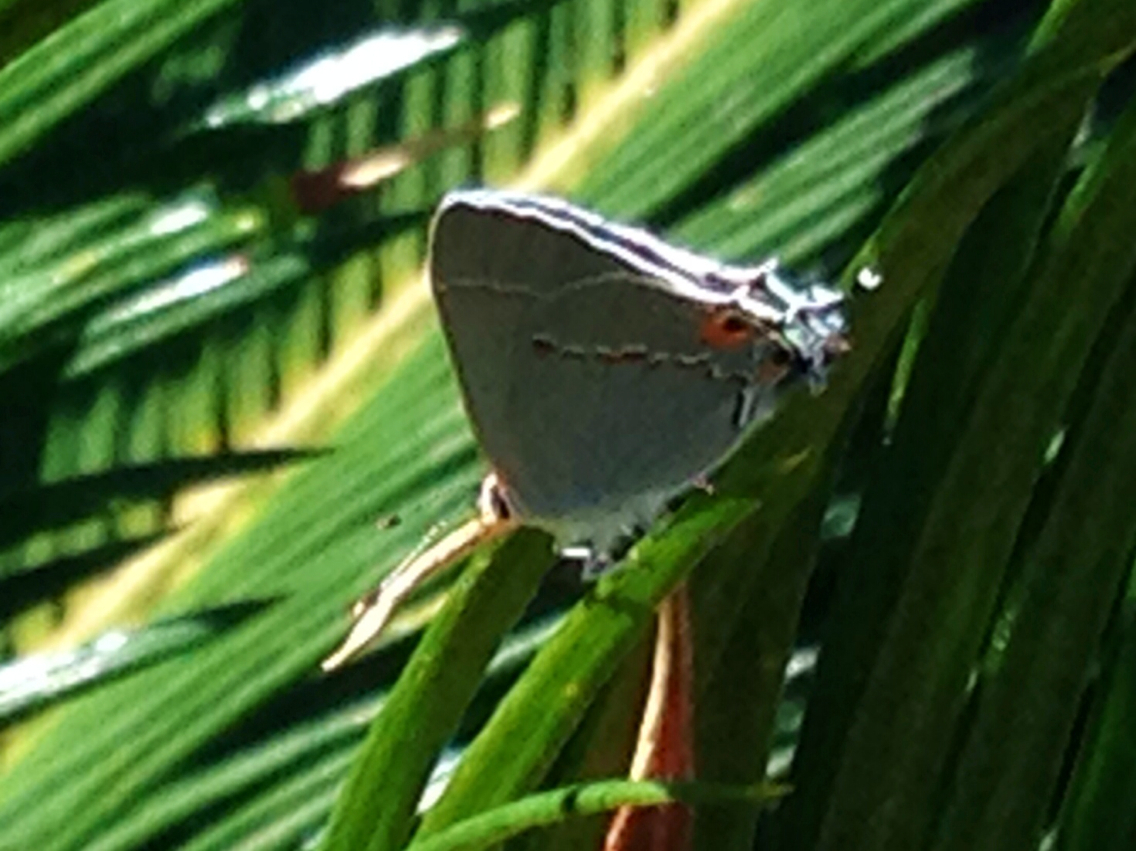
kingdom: Animalia
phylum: Arthropoda
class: Insecta
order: Lepidoptera
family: Lycaenidae
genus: Strymon
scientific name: Strymon melinus
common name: Gray hairstreak
